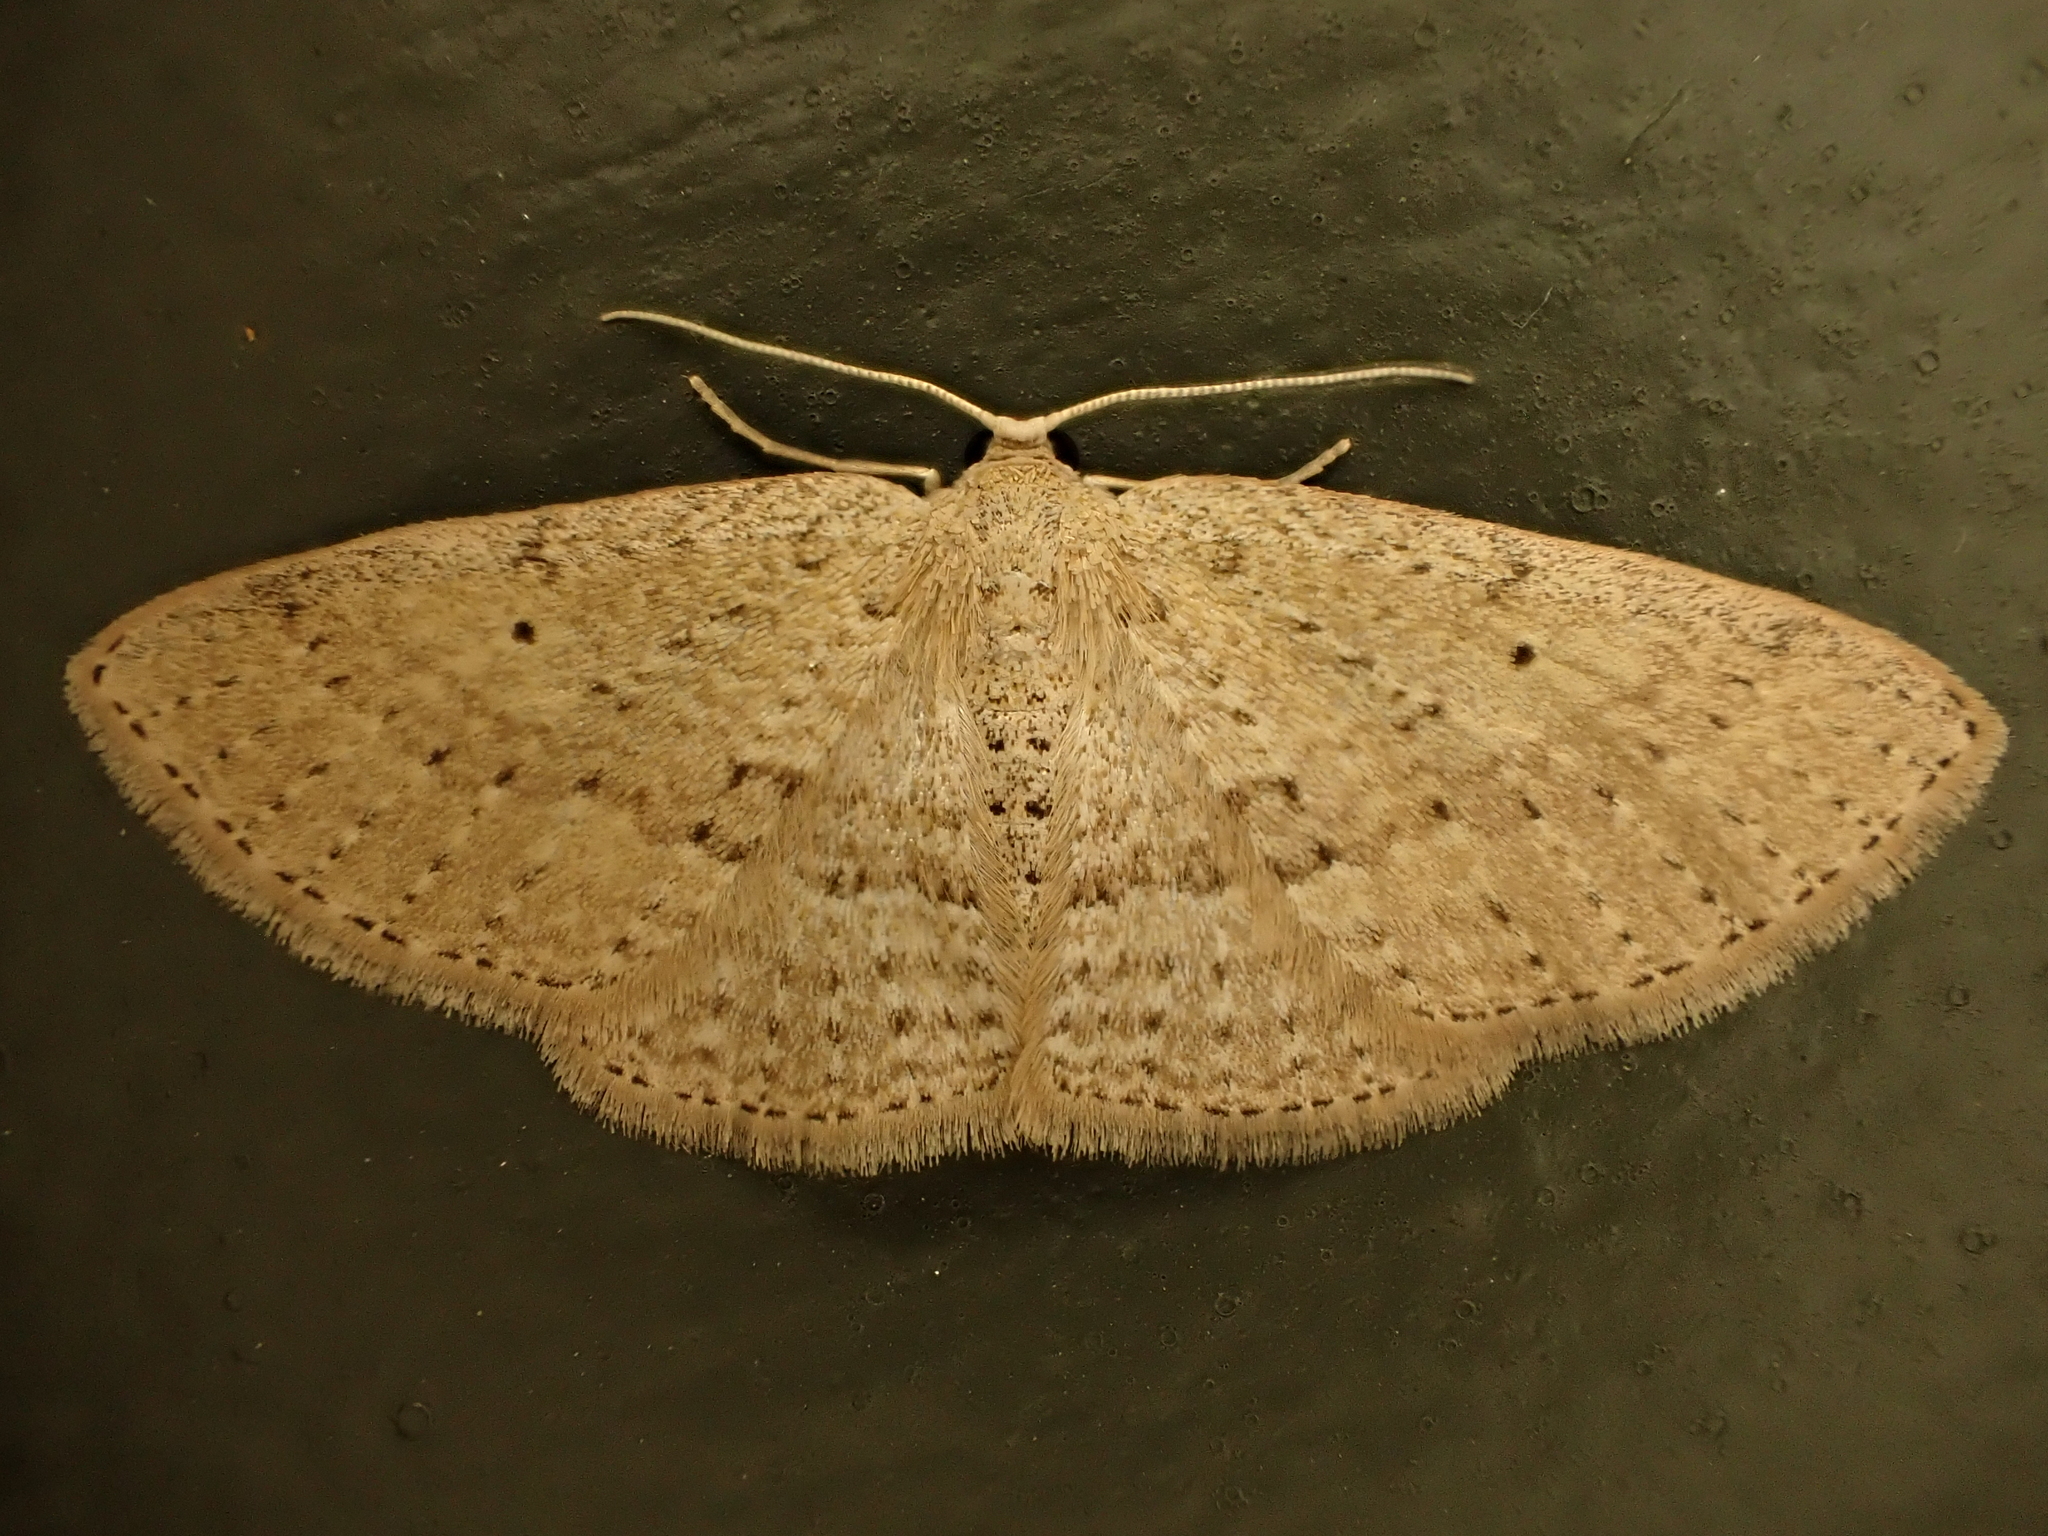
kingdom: Animalia
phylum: Arthropoda
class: Insecta
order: Lepidoptera
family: Geometridae
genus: Poecilasthena
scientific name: Poecilasthena schistaria
